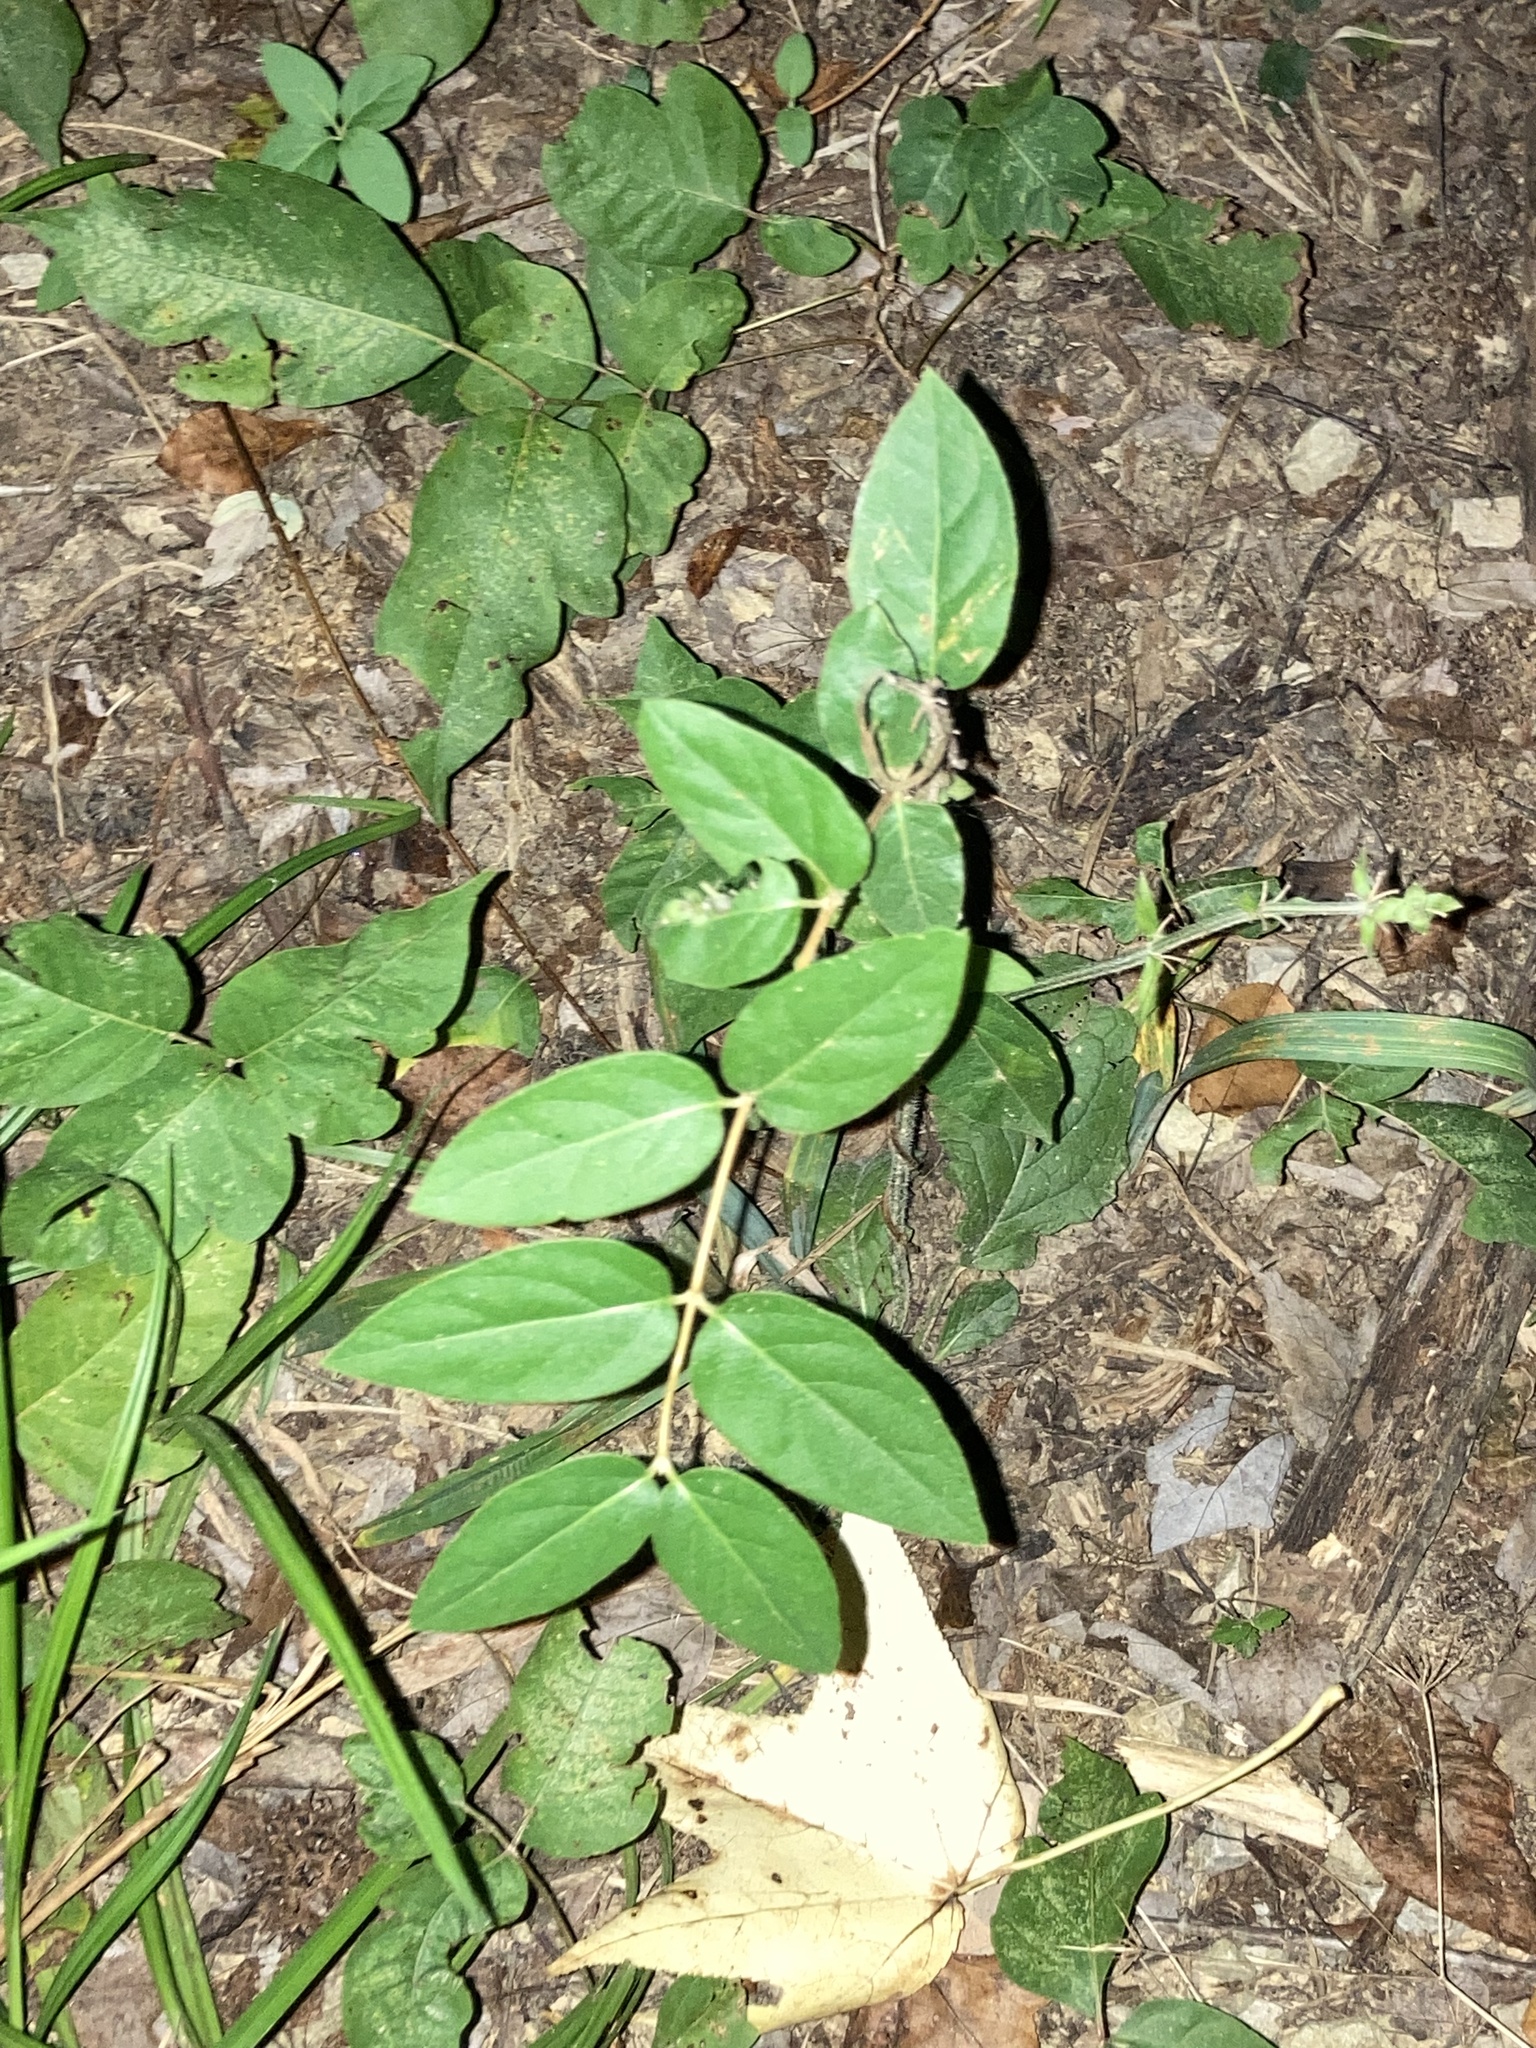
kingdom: Plantae
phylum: Tracheophyta
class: Magnoliopsida
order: Dipsacales
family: Caprifoliaceae
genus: Lonicera
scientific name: Lonicera japonica
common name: Japanese honeysuckle
